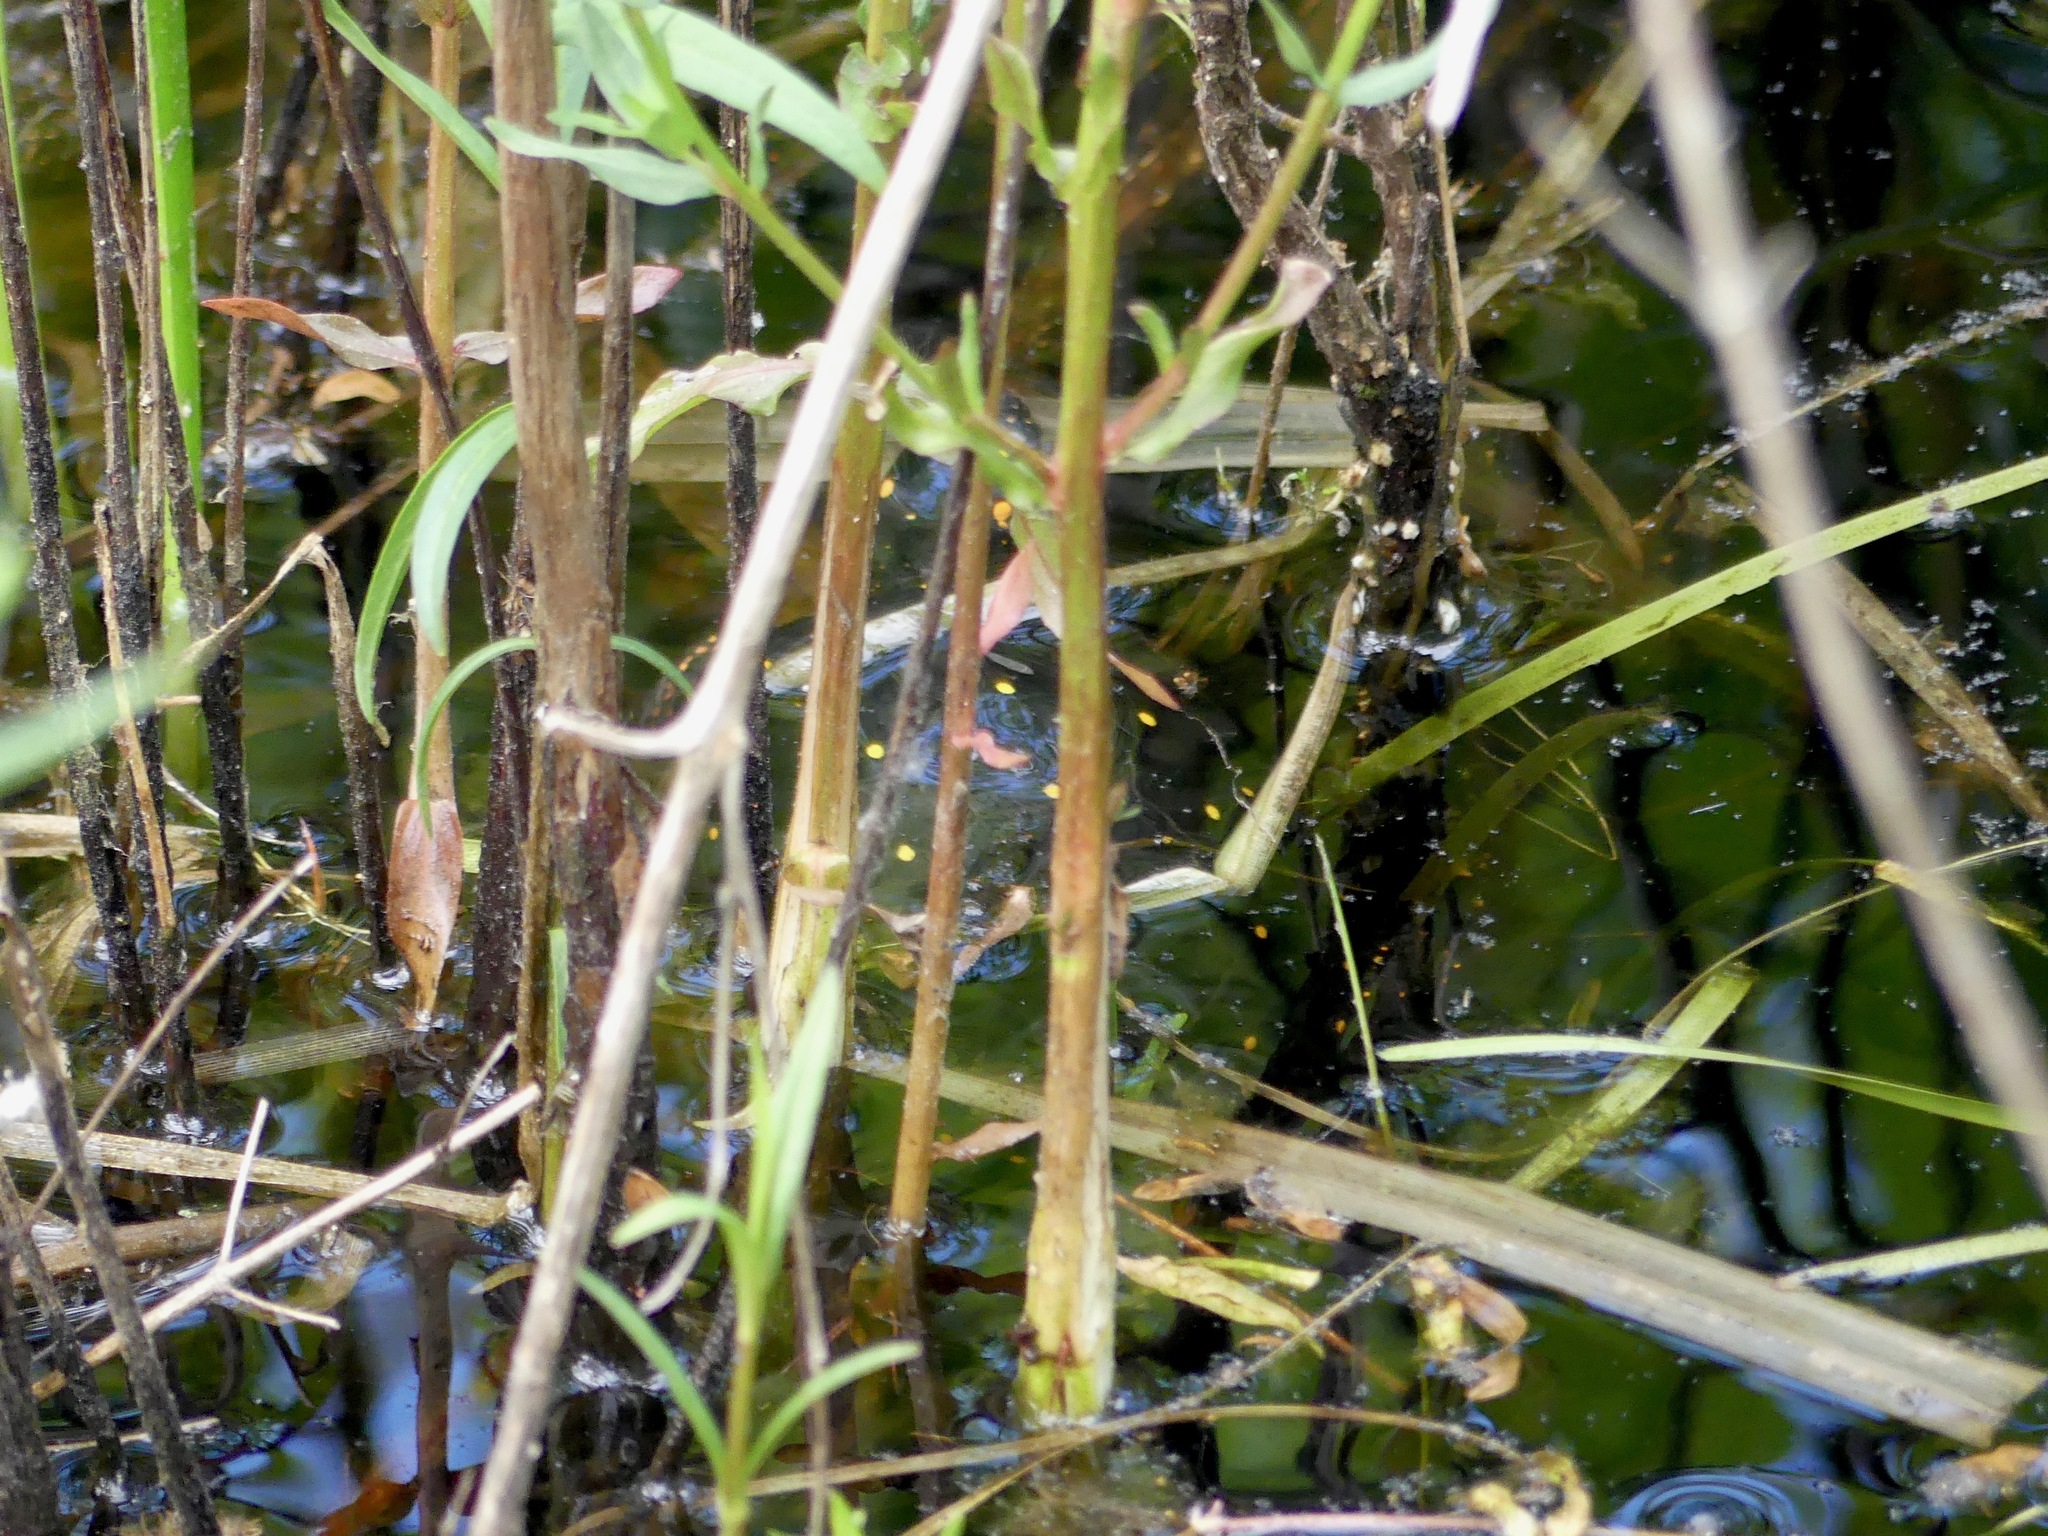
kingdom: Animalia
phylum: Chordata
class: Testudines
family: Emydidae
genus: Clemmys
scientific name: Clemmys guttata
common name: Spotted turtle
